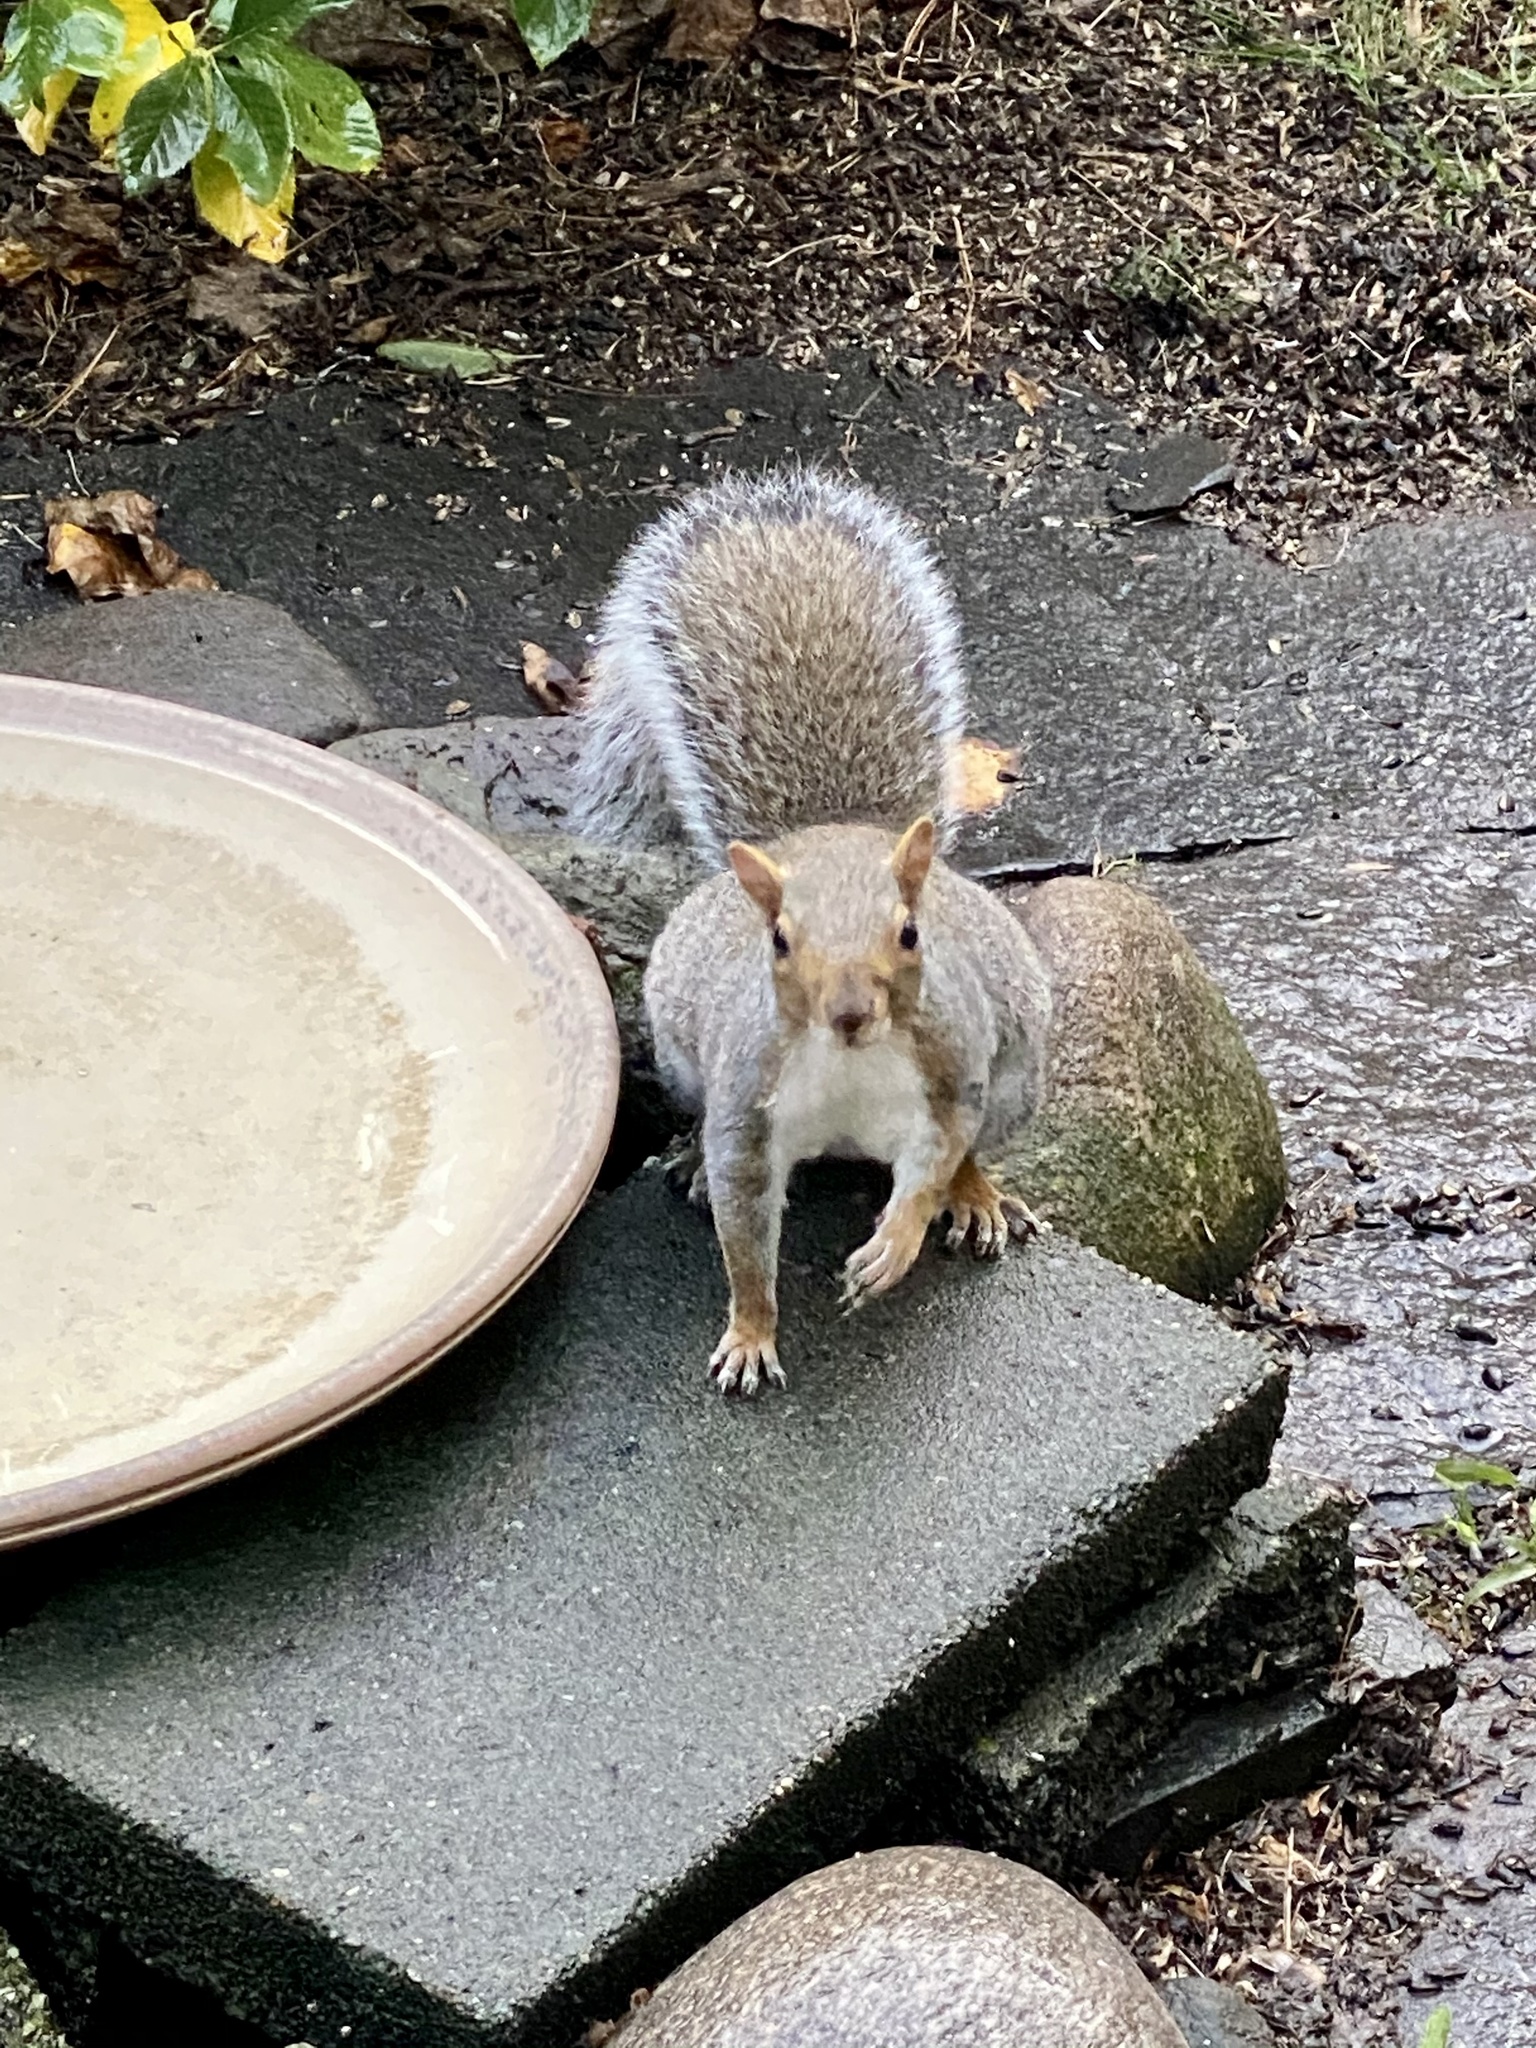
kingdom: Animalia
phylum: Chordata
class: Mammalia
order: Rodentia
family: Sciuridae
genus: Sciurus
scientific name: Sciurus carolinensis
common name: Eastern gray squirrel
